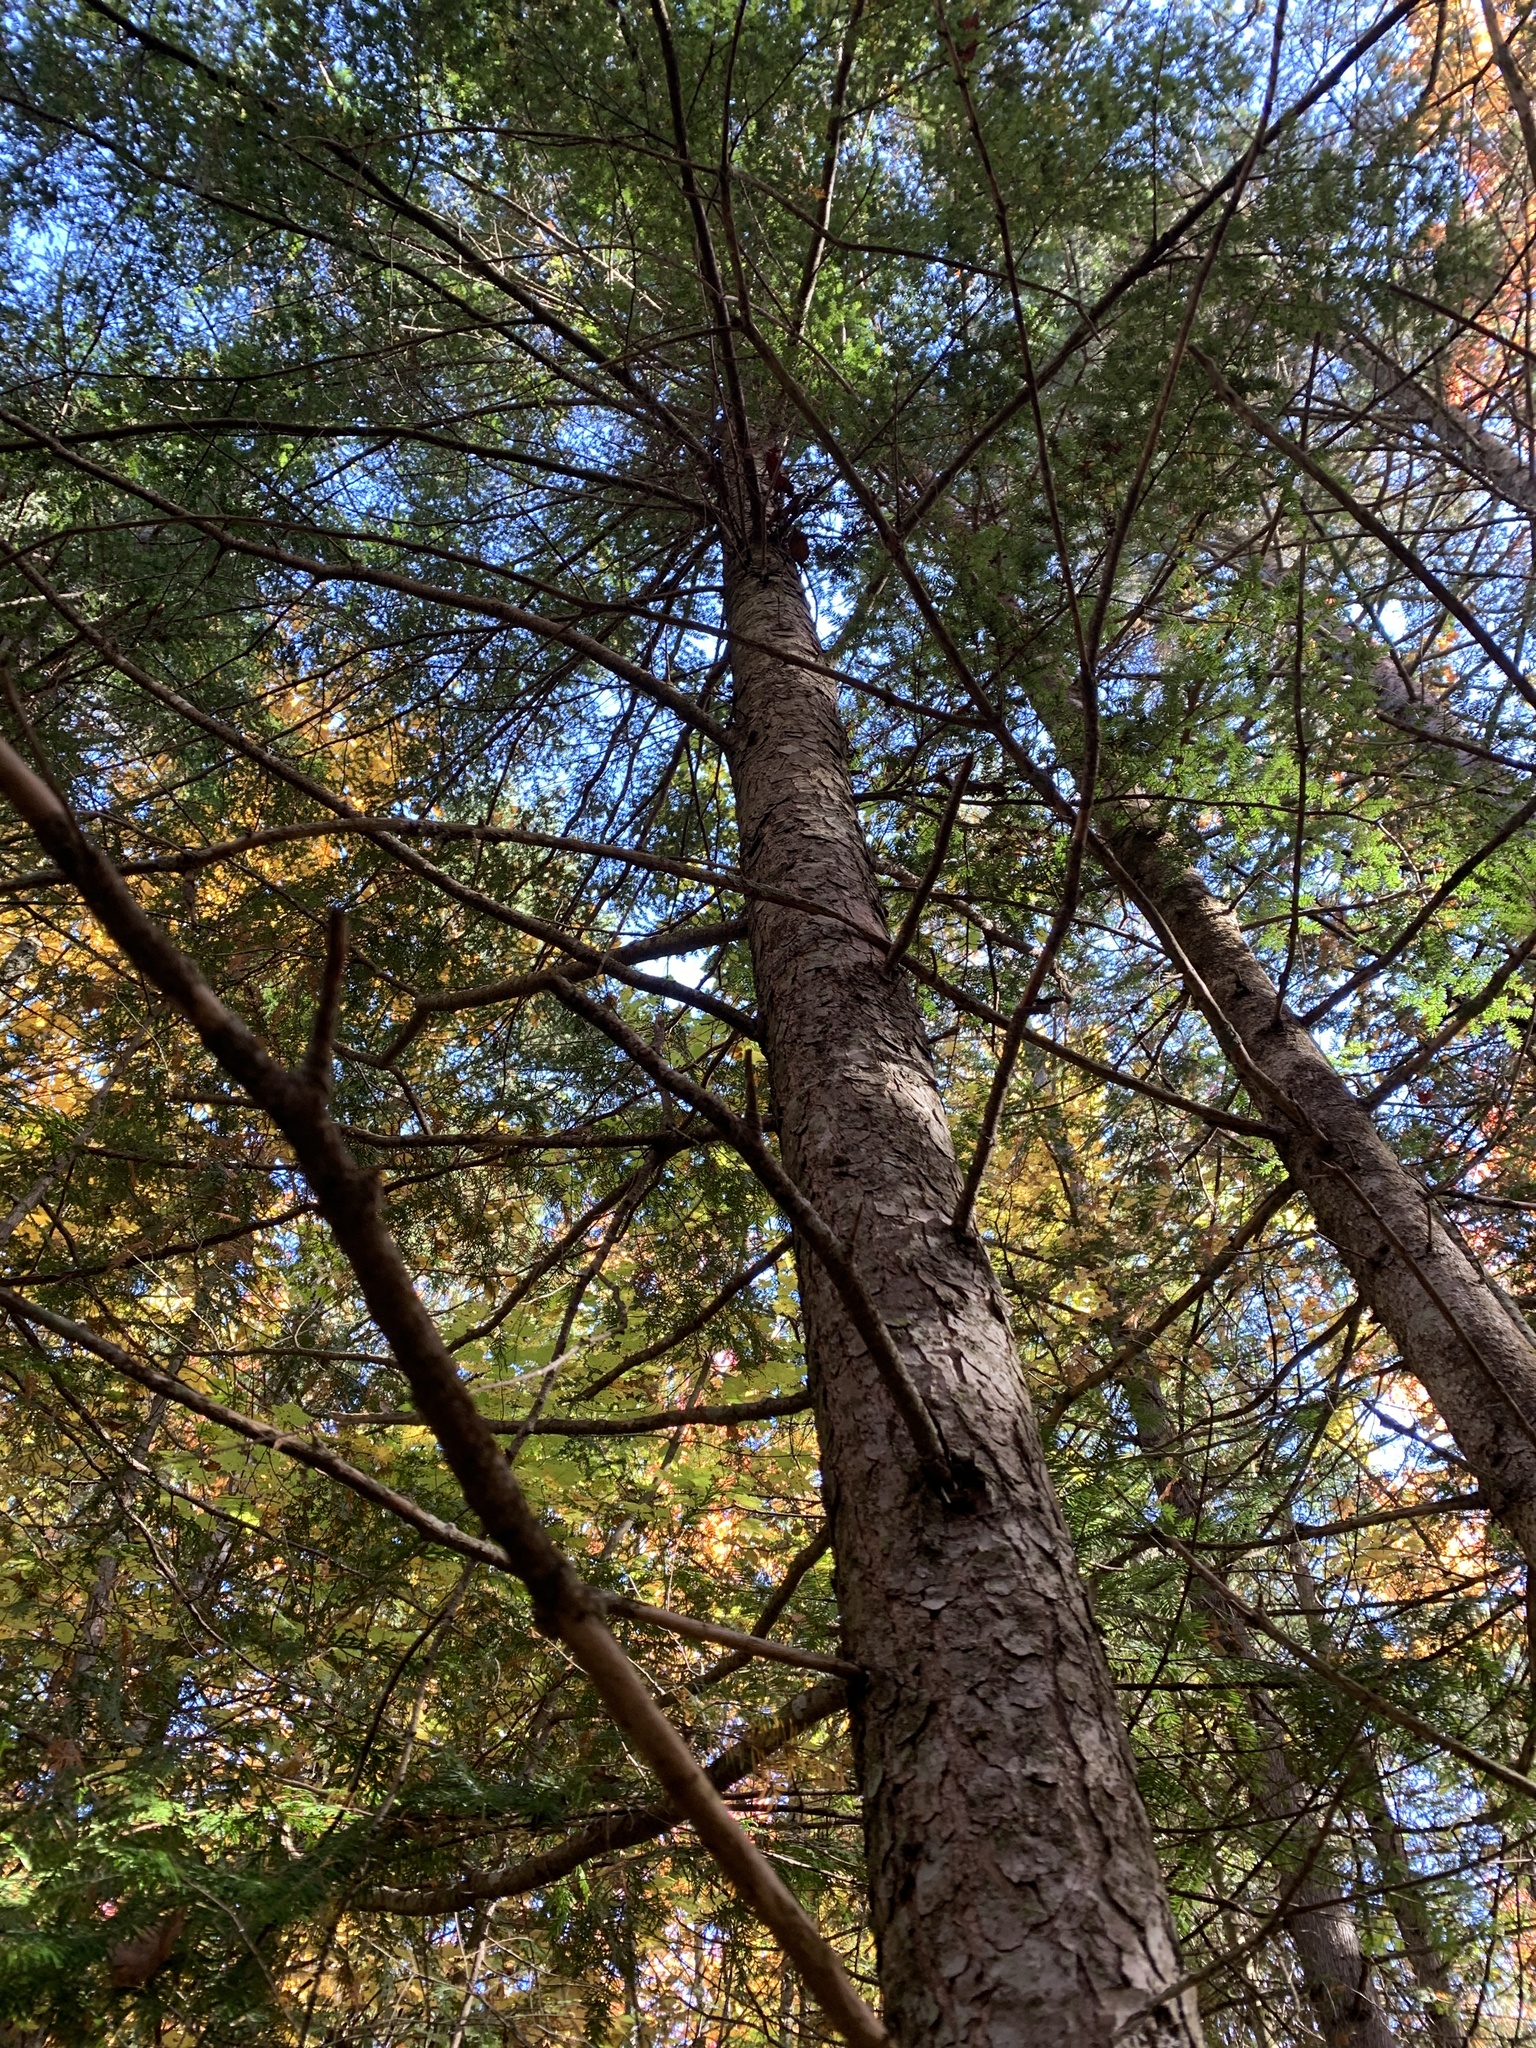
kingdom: Plantae
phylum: Tracheophyta
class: Pinopsida
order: Pinales
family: Pinaceae
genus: Tsuga
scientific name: Tsuga canadensis
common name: Eastern hemlock
